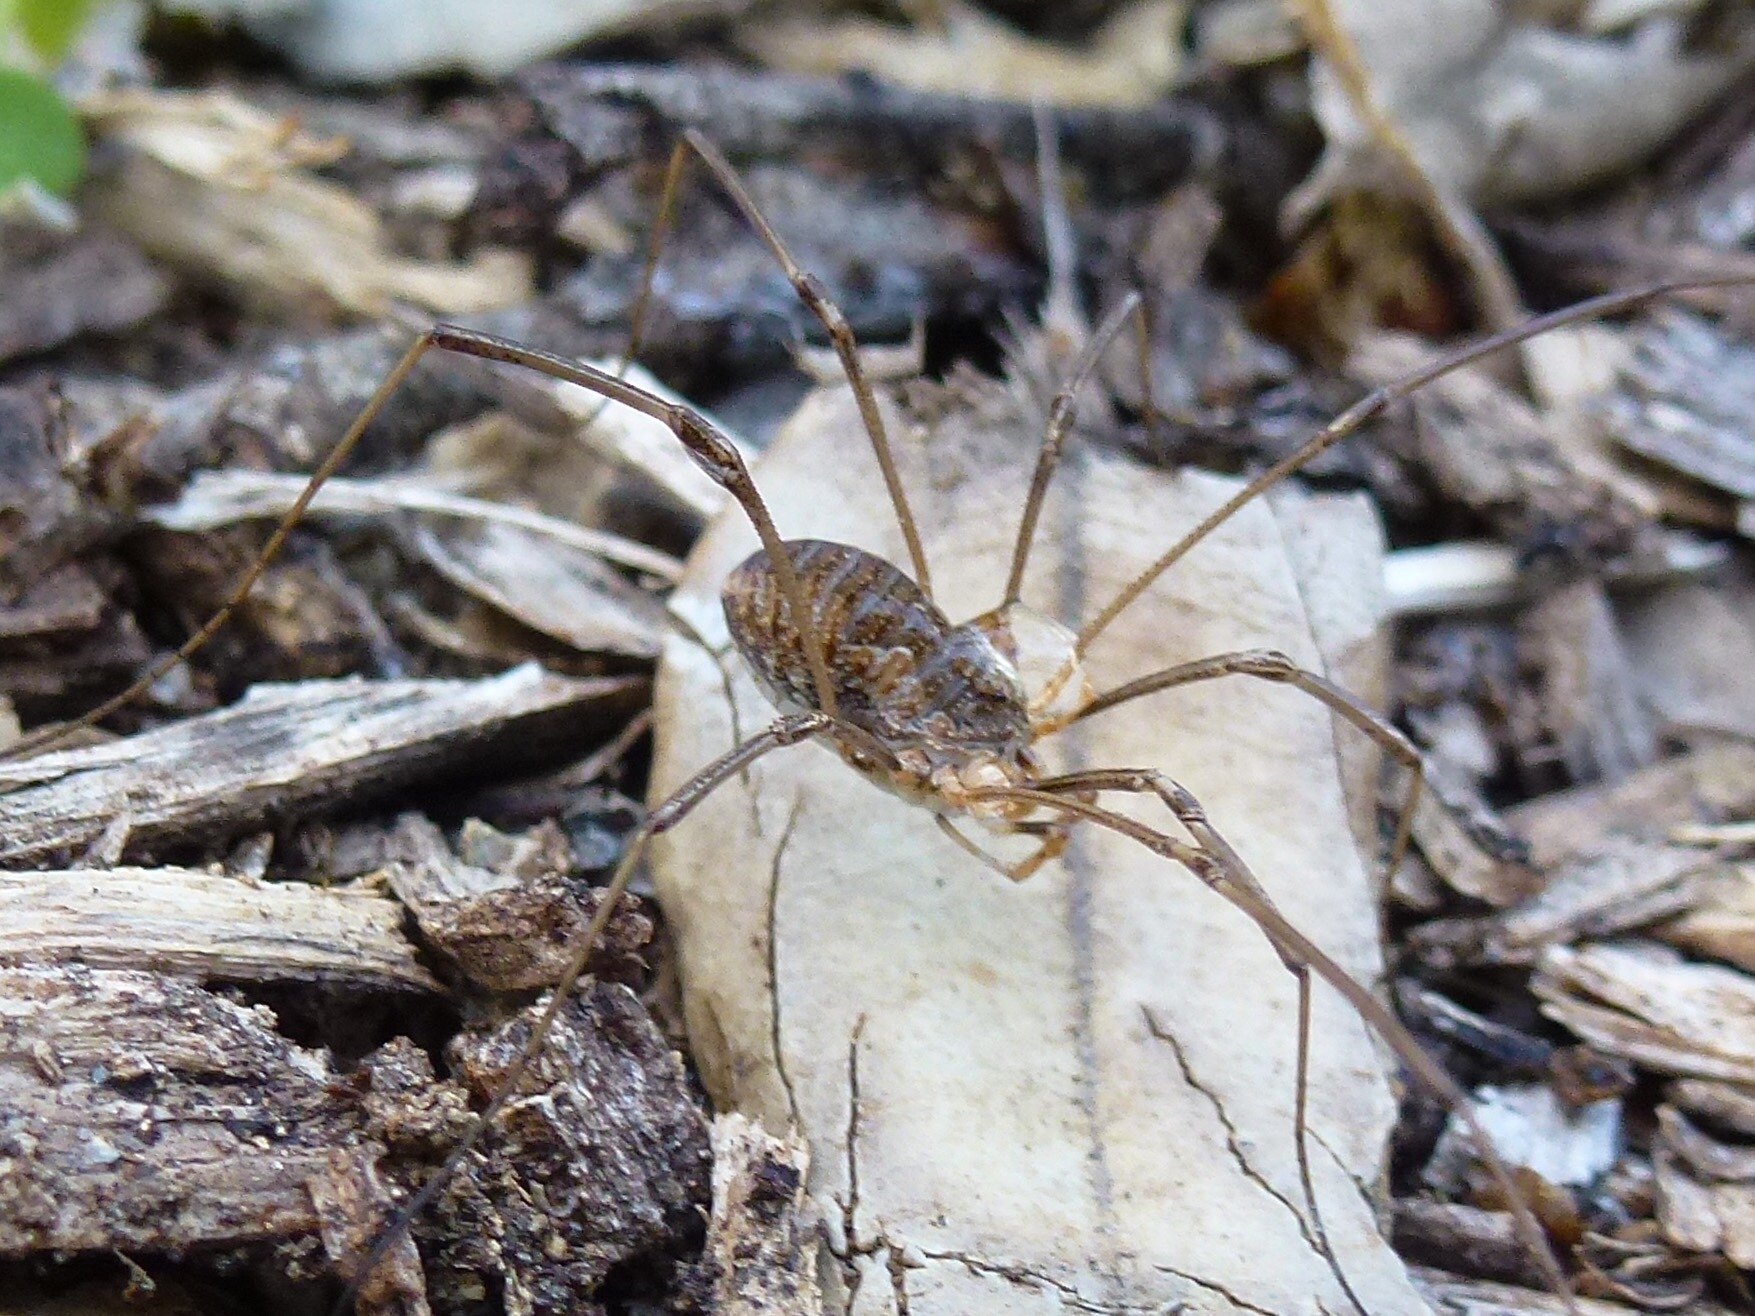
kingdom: Animalia
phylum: Arthropoda
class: Arachnida
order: Opiliones
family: Phalangiidae
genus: Phalangium
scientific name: Phalangium opilio
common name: Daddy longleg
